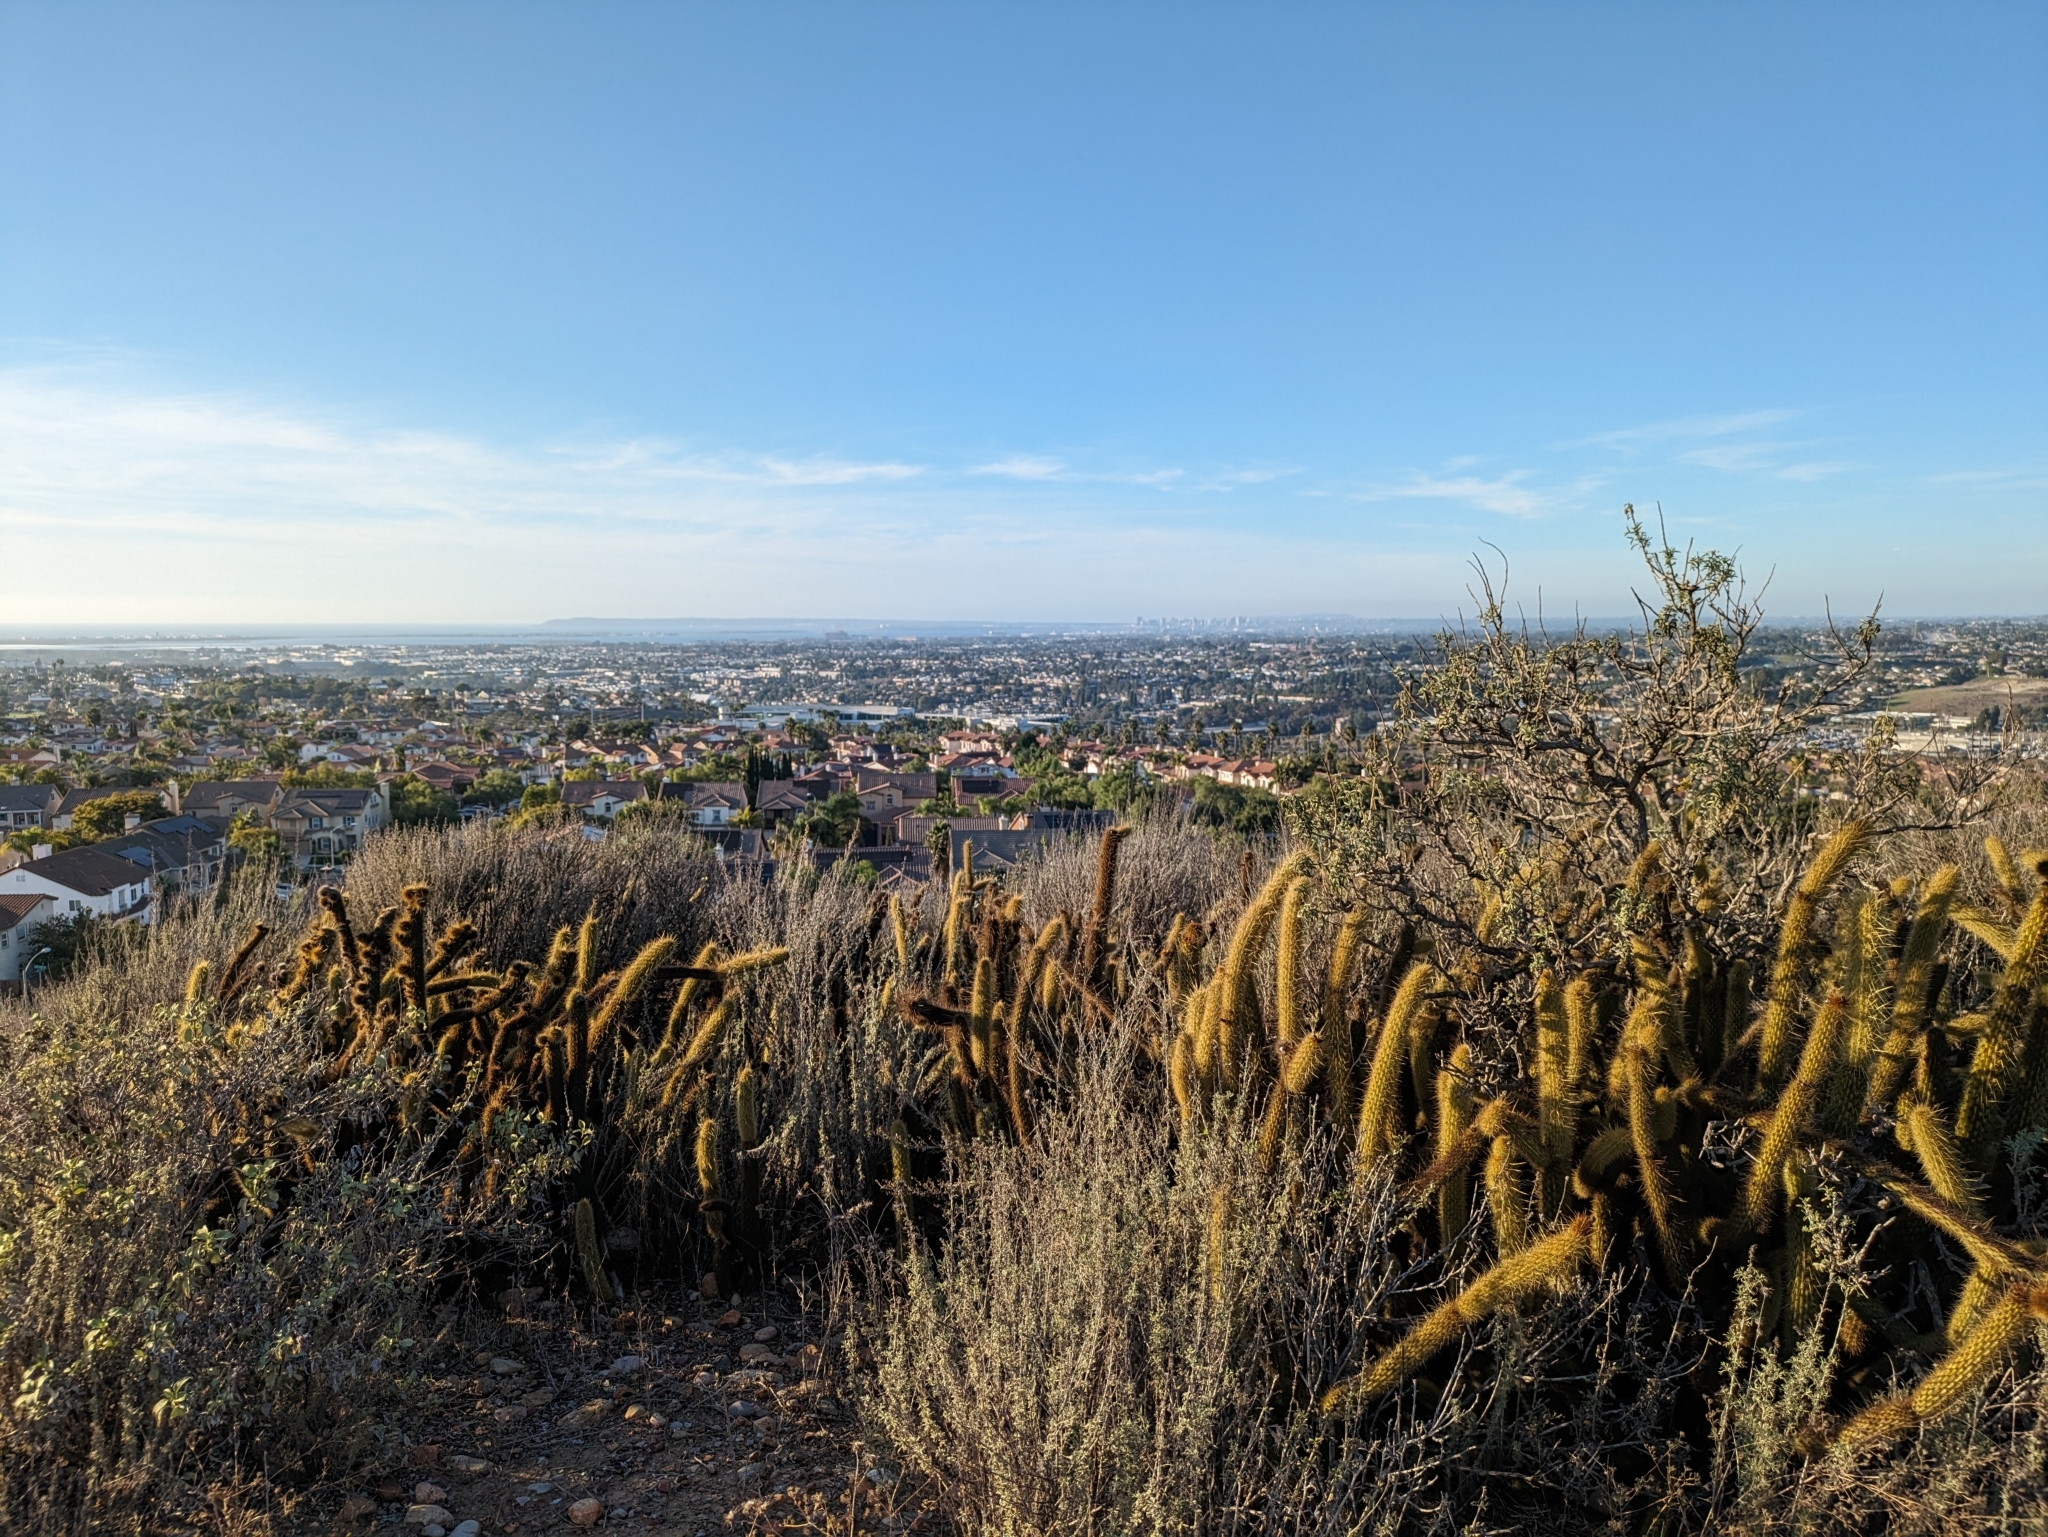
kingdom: Plantae
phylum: Tracheophyta
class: Magnoliopsida
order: Caryophyllales
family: Cactaceae
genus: Bergerocactus
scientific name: Bergerocactus emoryi
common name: Golden snakecactus
